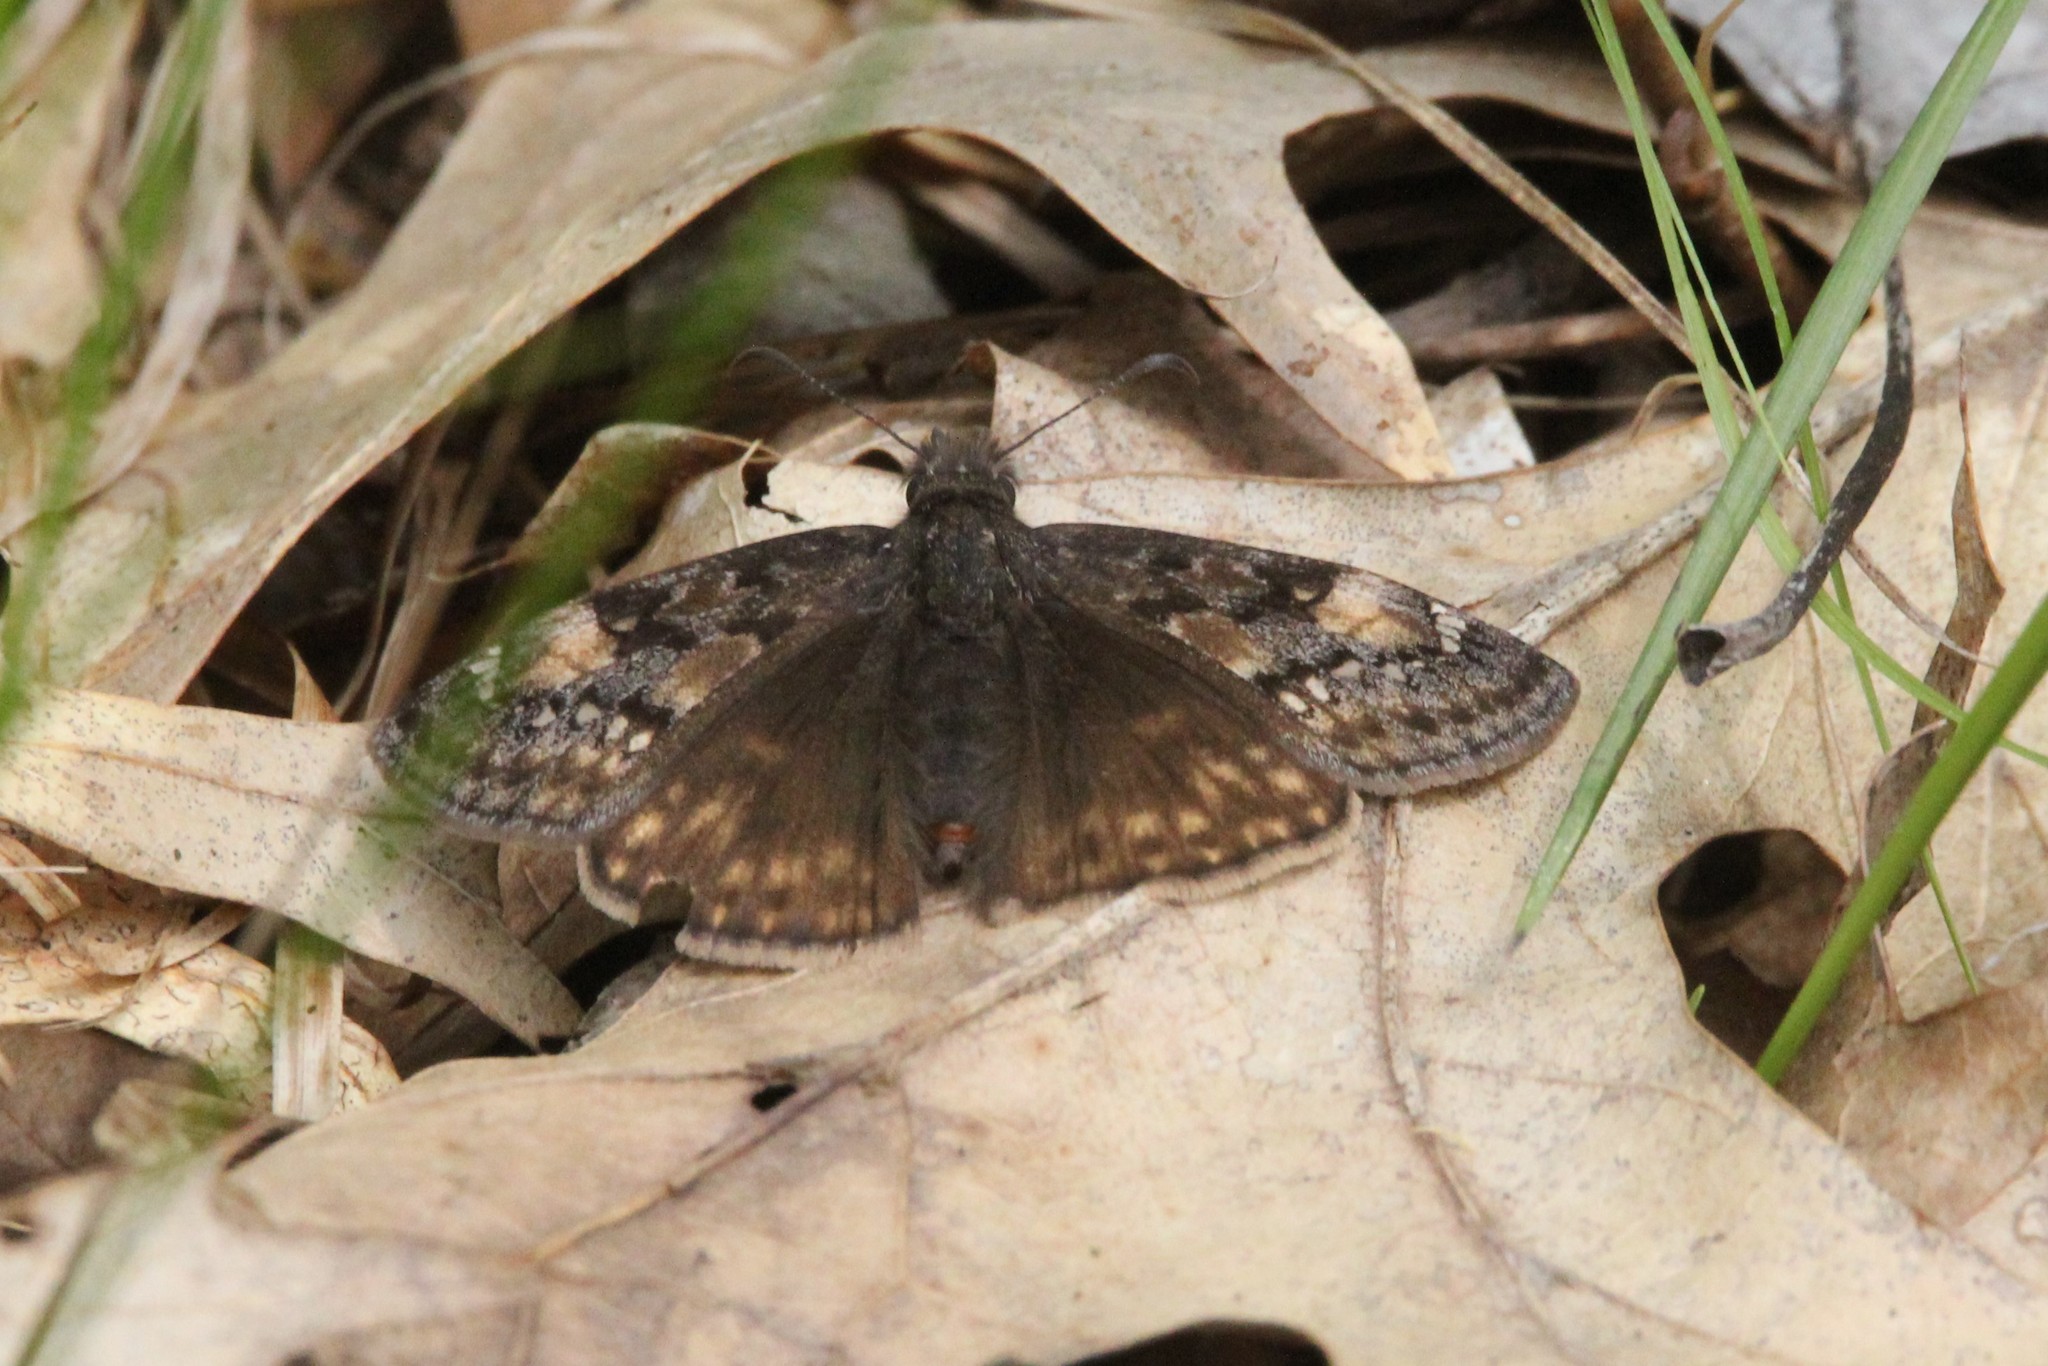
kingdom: Animalia
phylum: Arthropoda
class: Insecta
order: Lepidoptera
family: Hesperiidae
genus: Erynnis
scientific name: Erynnis juvenalis
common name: Juvenal's duskywing
